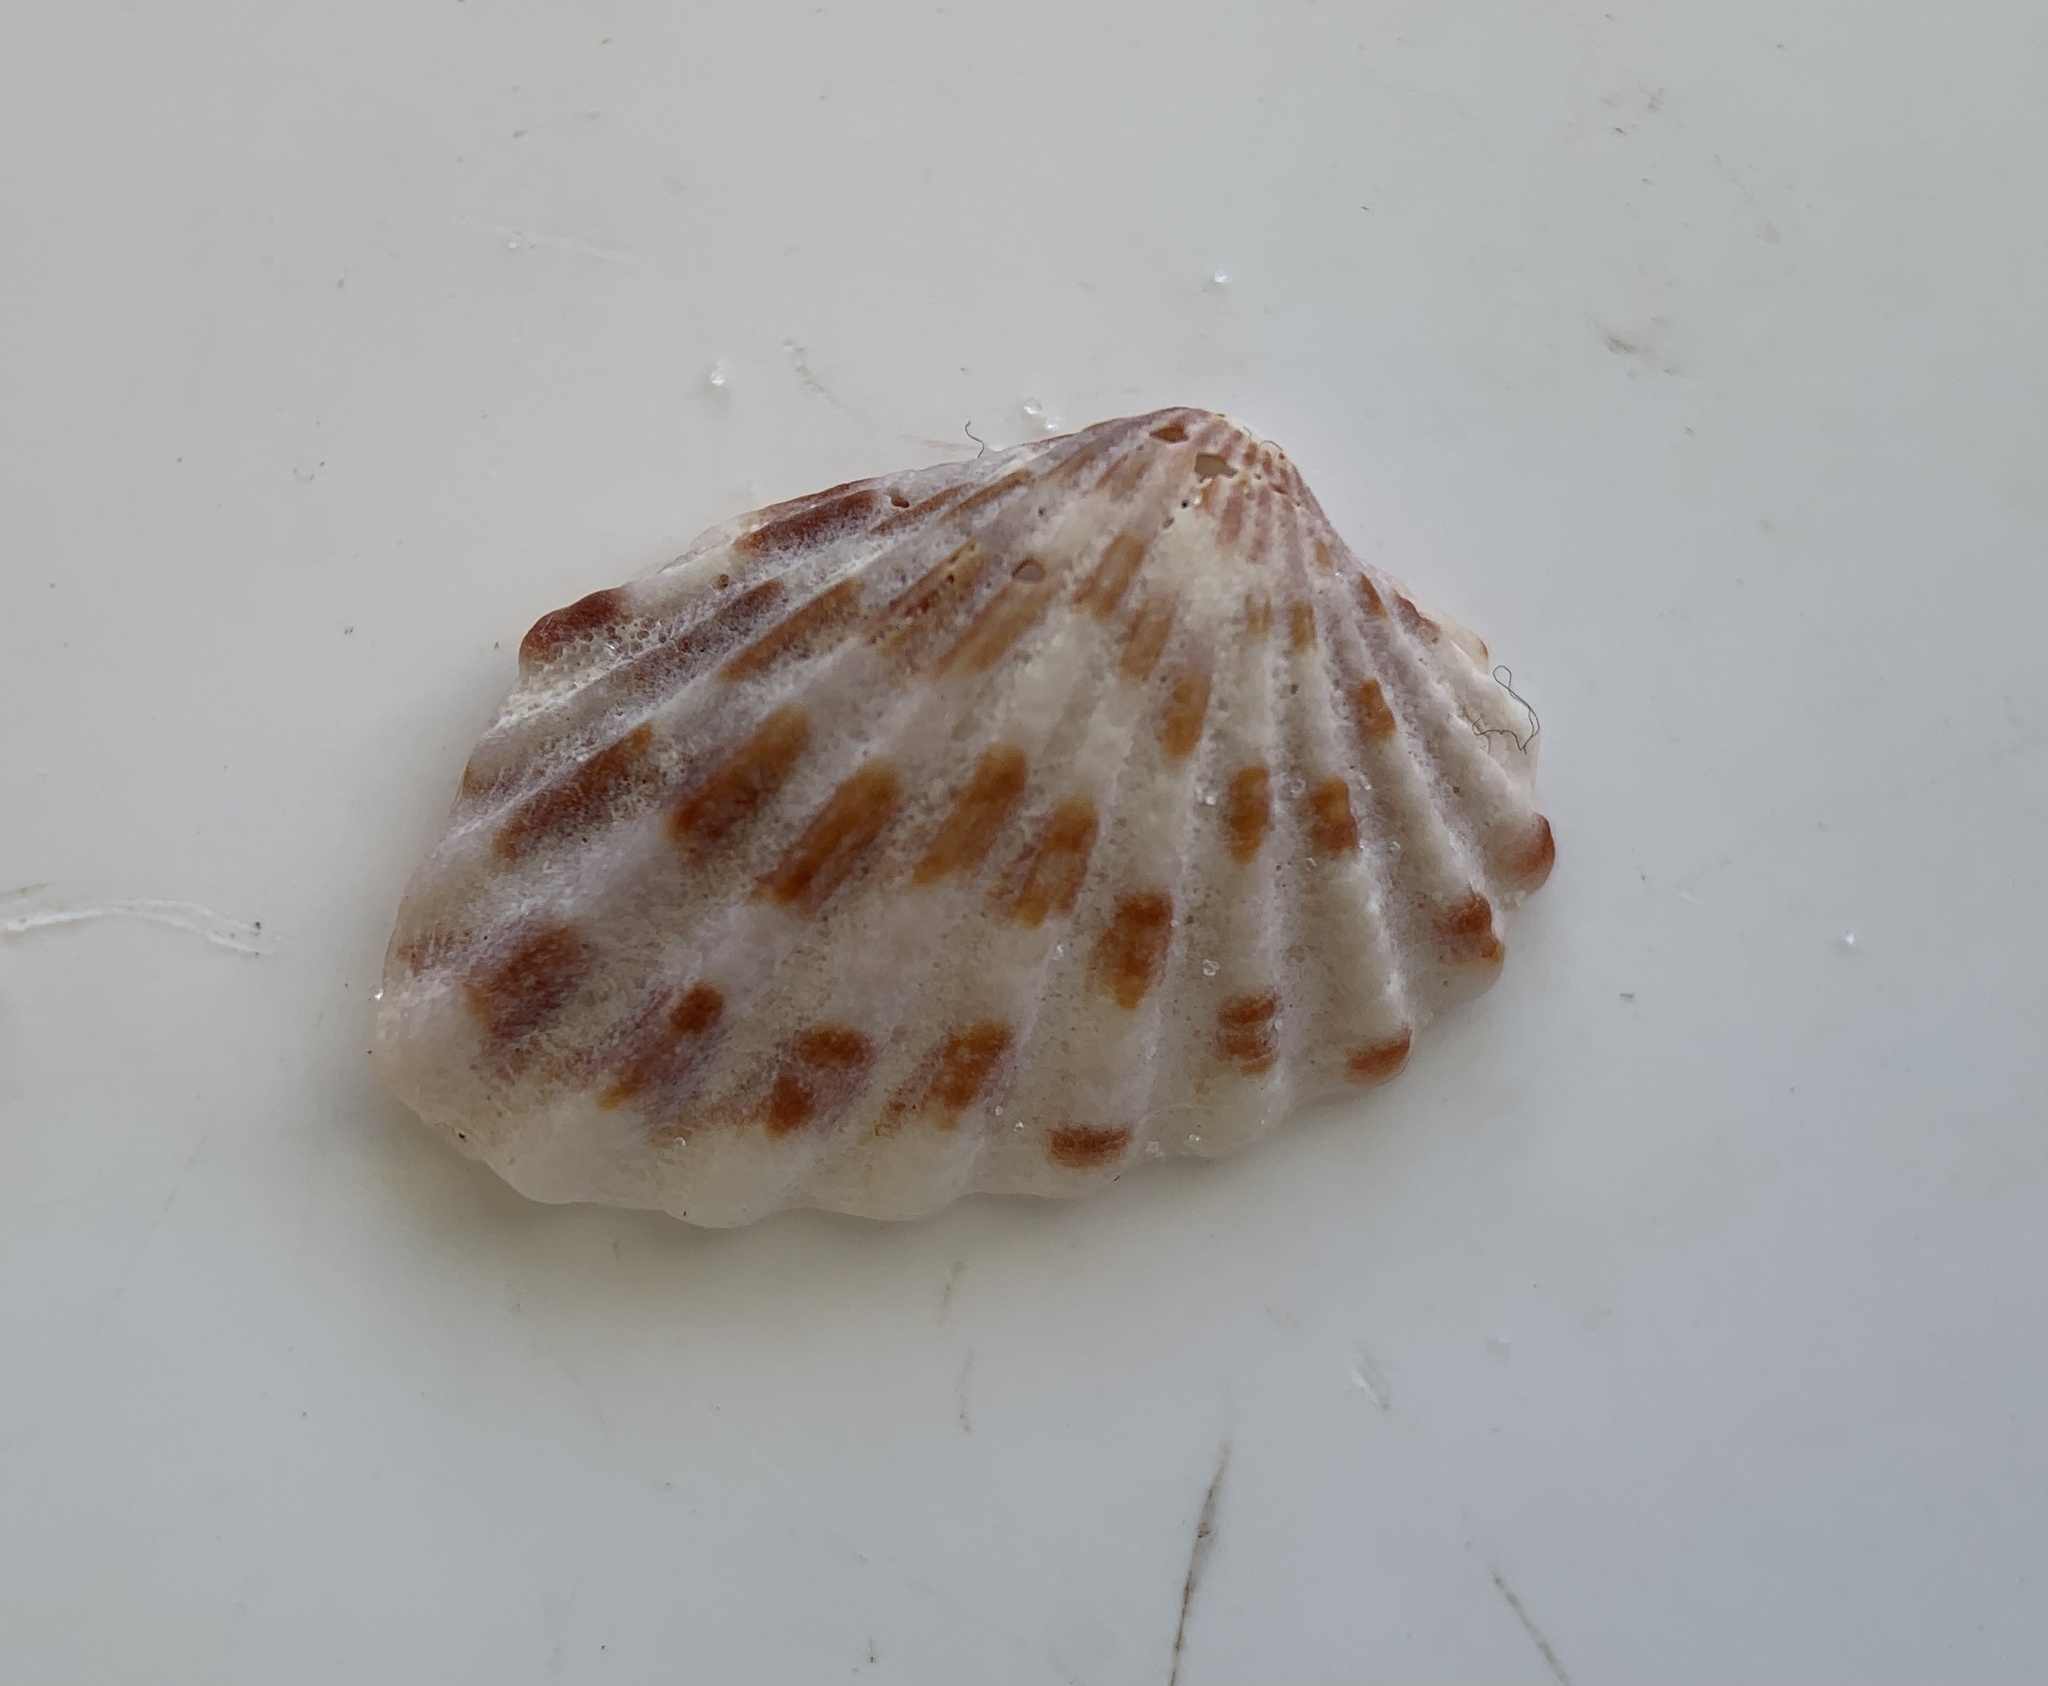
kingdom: Animalia
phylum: Mollusca
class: Bivalvia
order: Carditida
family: Carditidae
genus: Cardites
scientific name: Cardites floridanus
